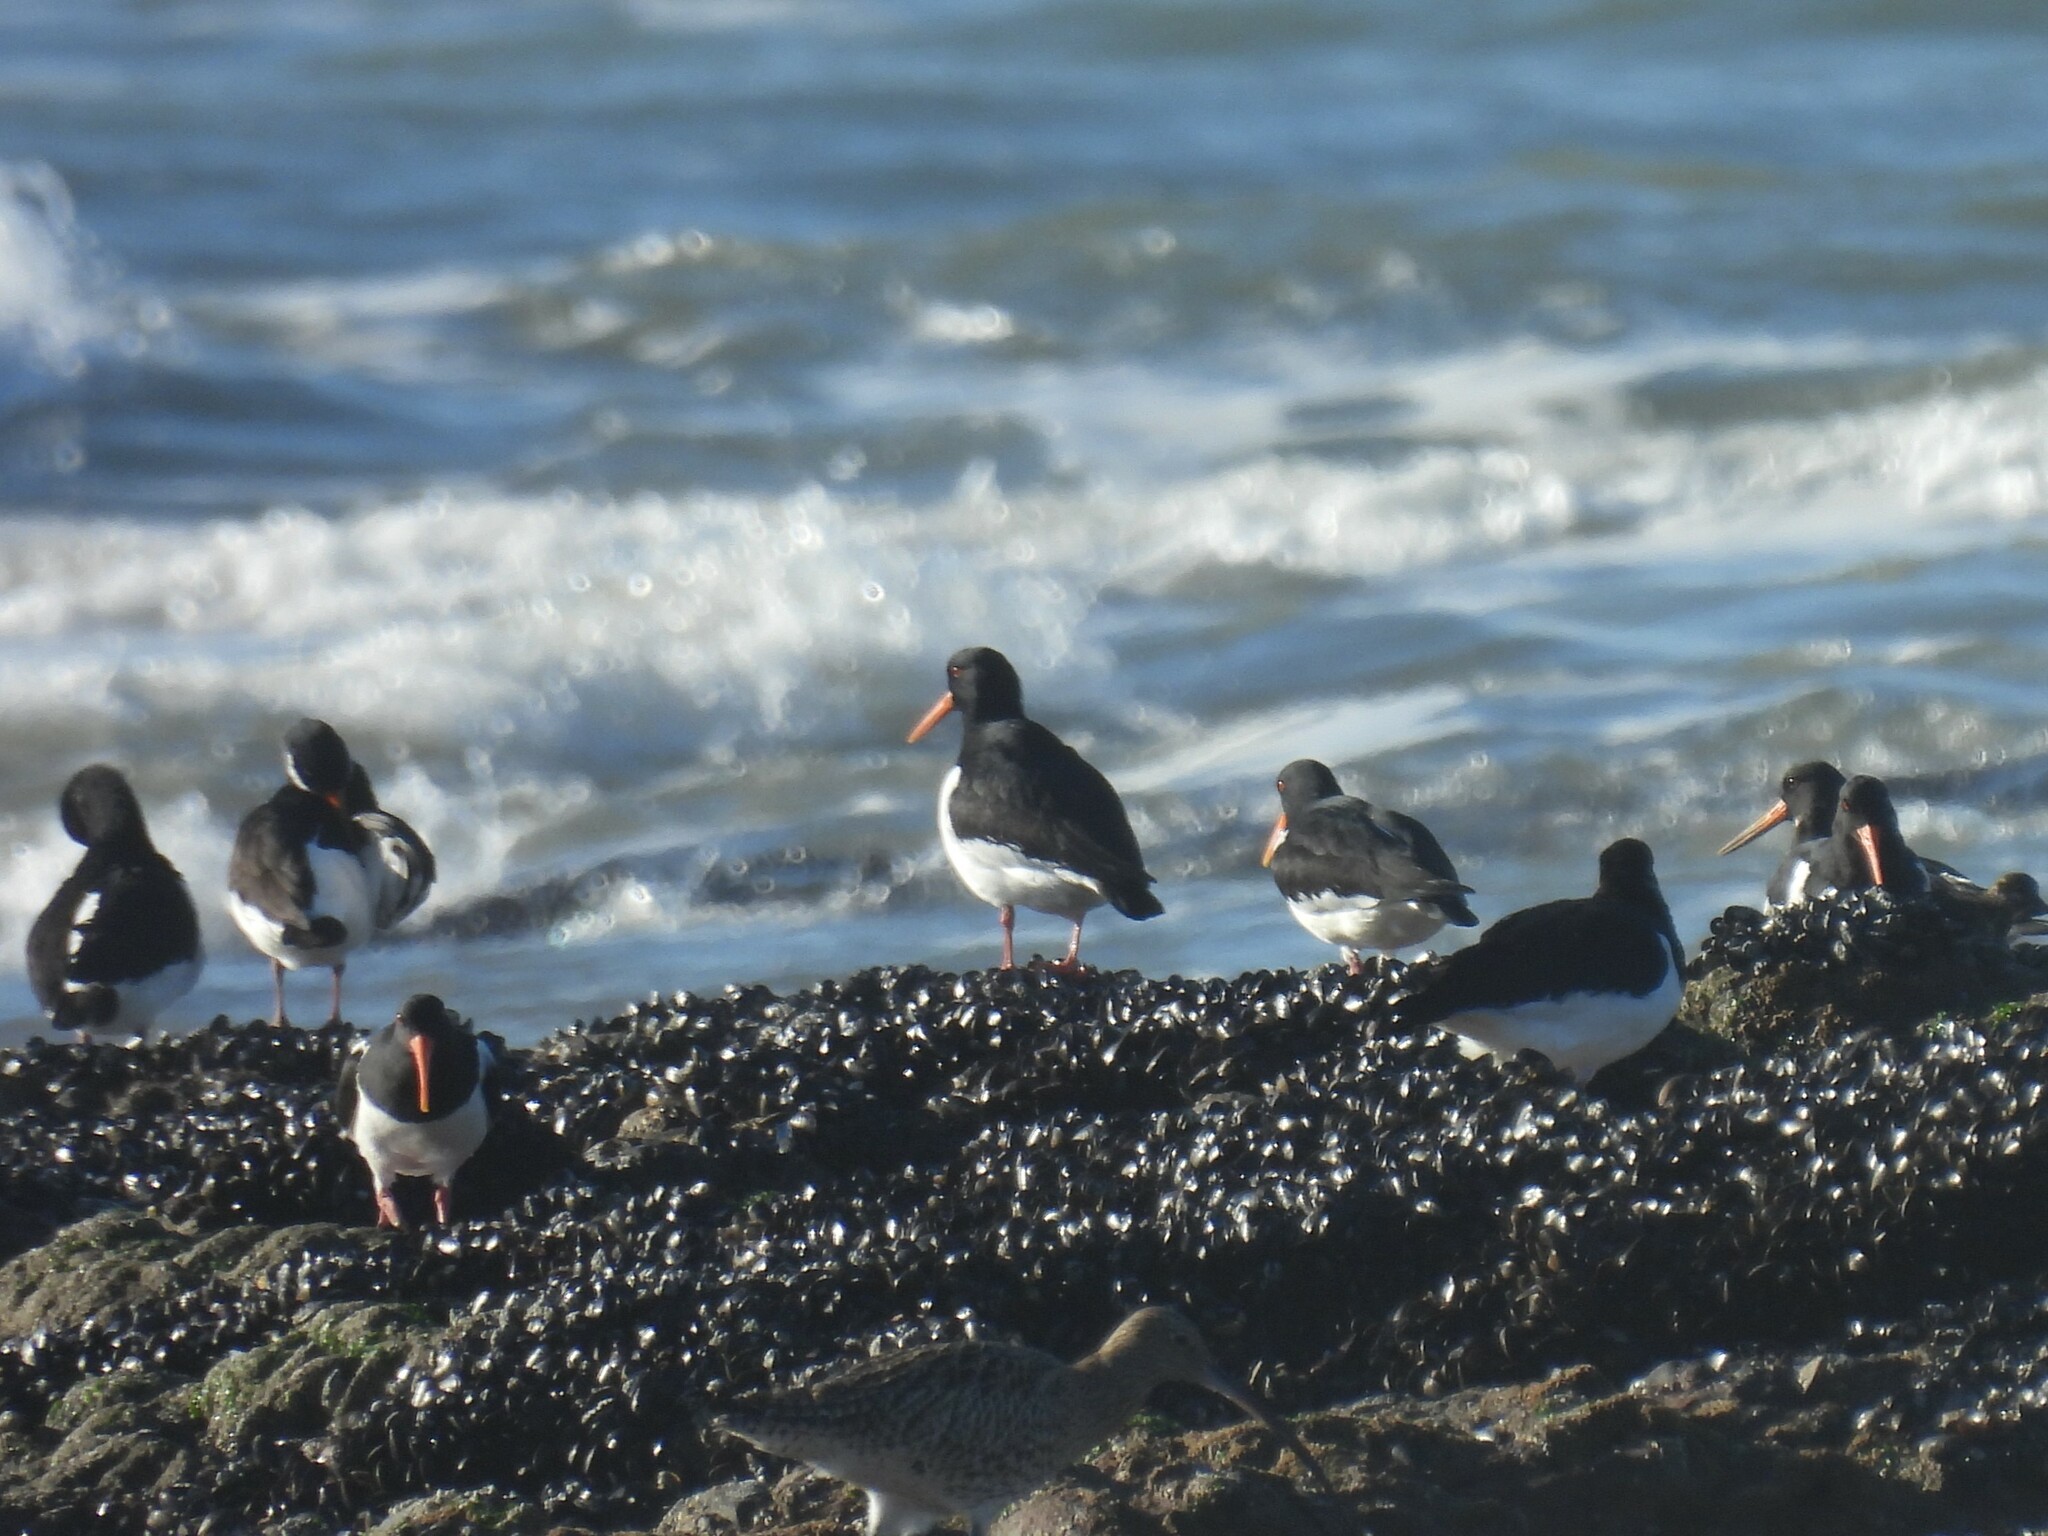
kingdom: Animalia
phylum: Chordata
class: Aves
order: Charadriiformes
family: Haematopodidae
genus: Haematopus
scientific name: Haematopus ostralegus
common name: Eurasian oystercatcher
